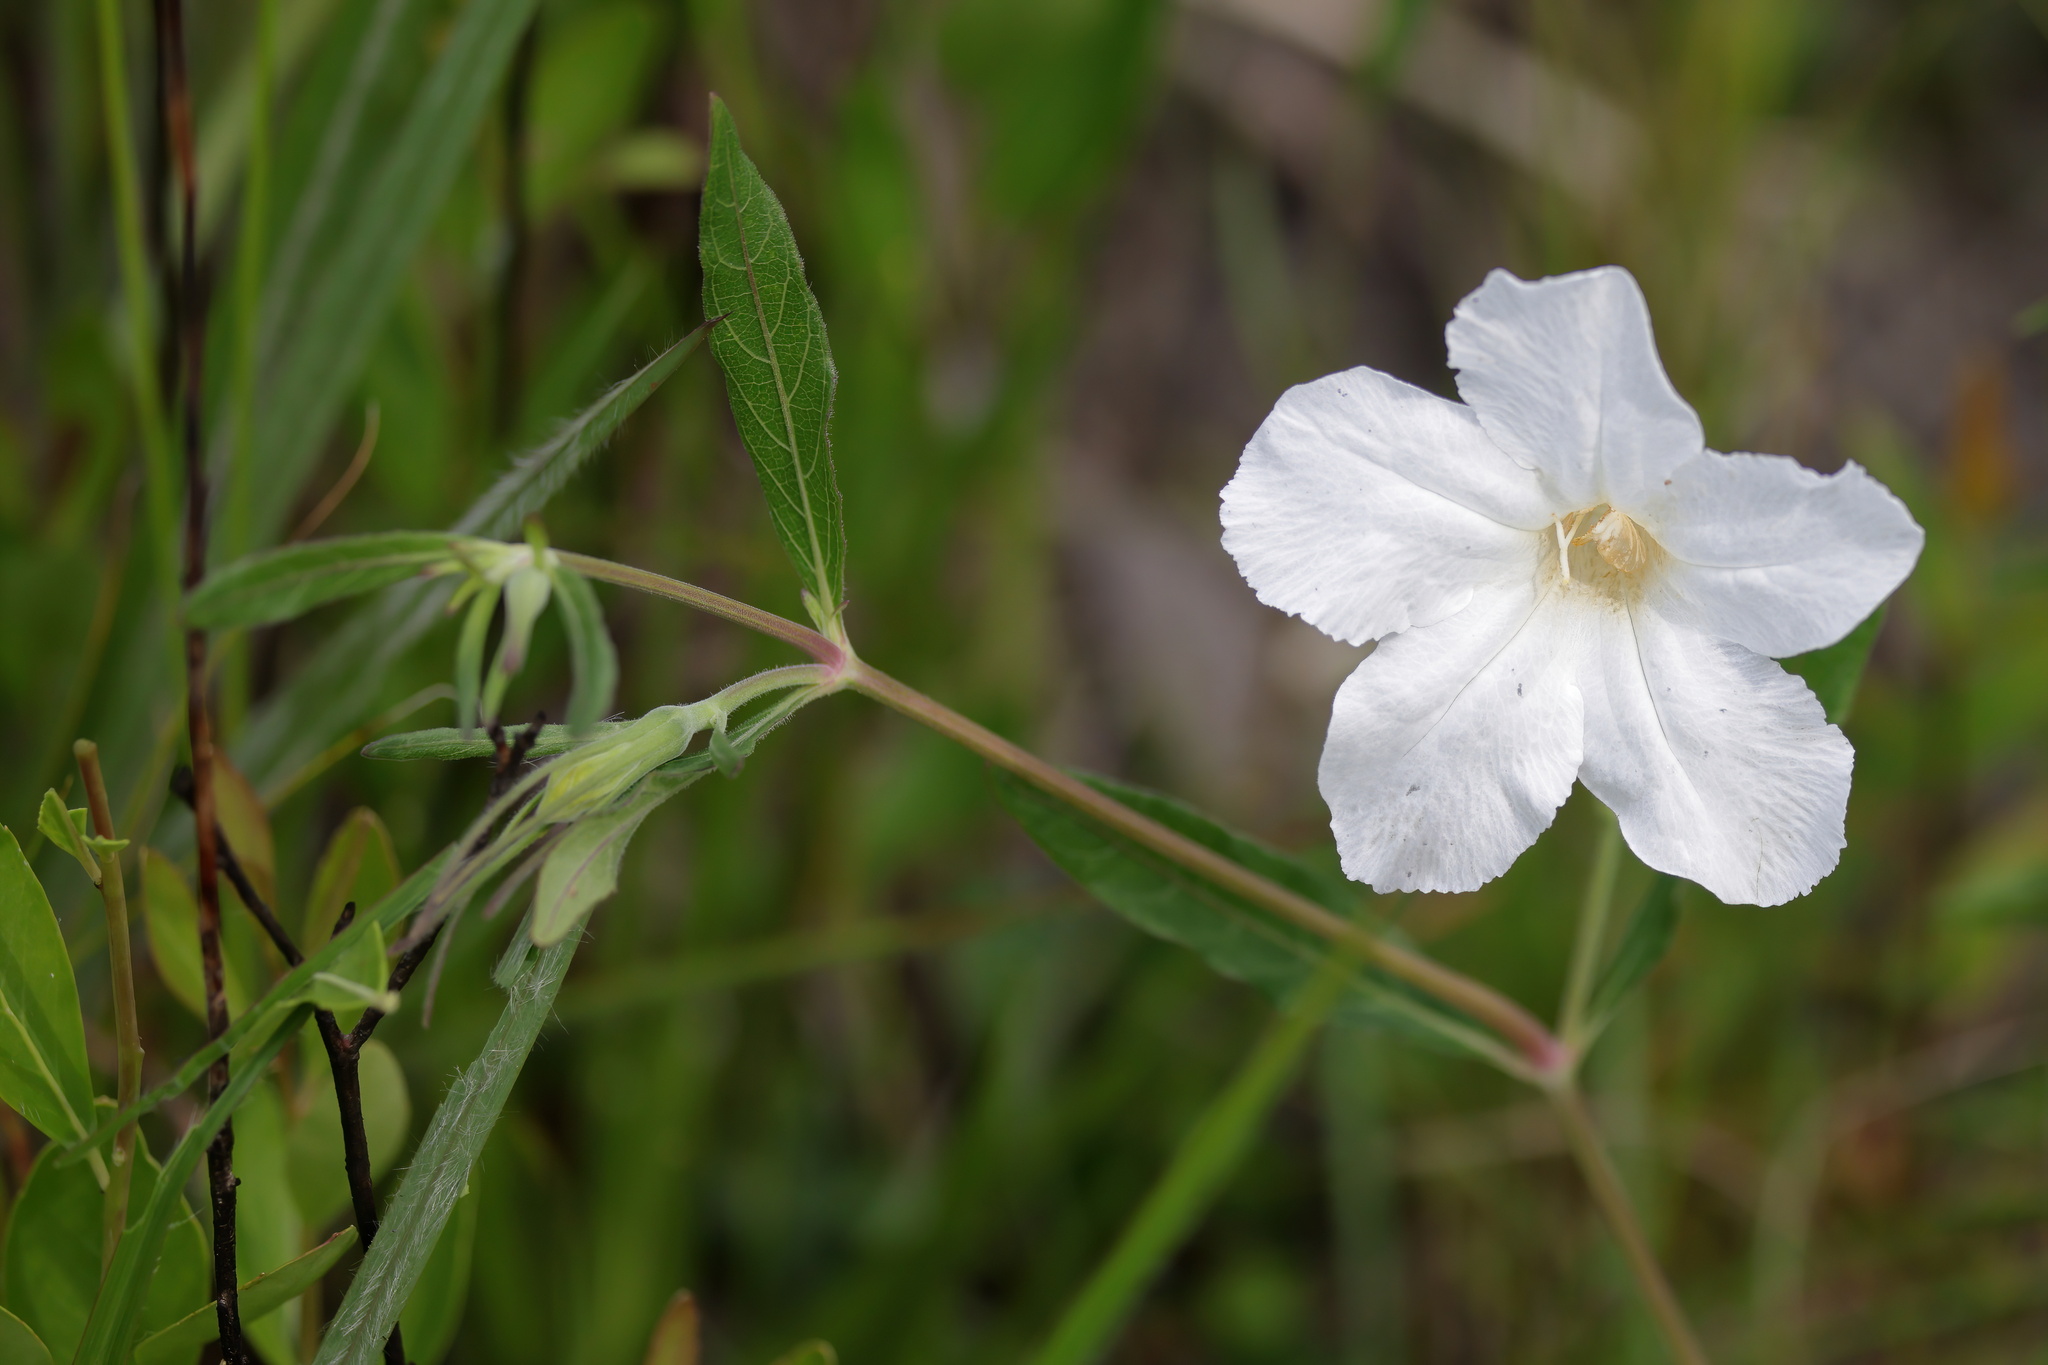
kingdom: Plantae
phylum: Tracheophyta
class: Magnoliopsida
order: Lamiales
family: Acanthaceae
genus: Ruellia
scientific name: Ruellia noctiflora
